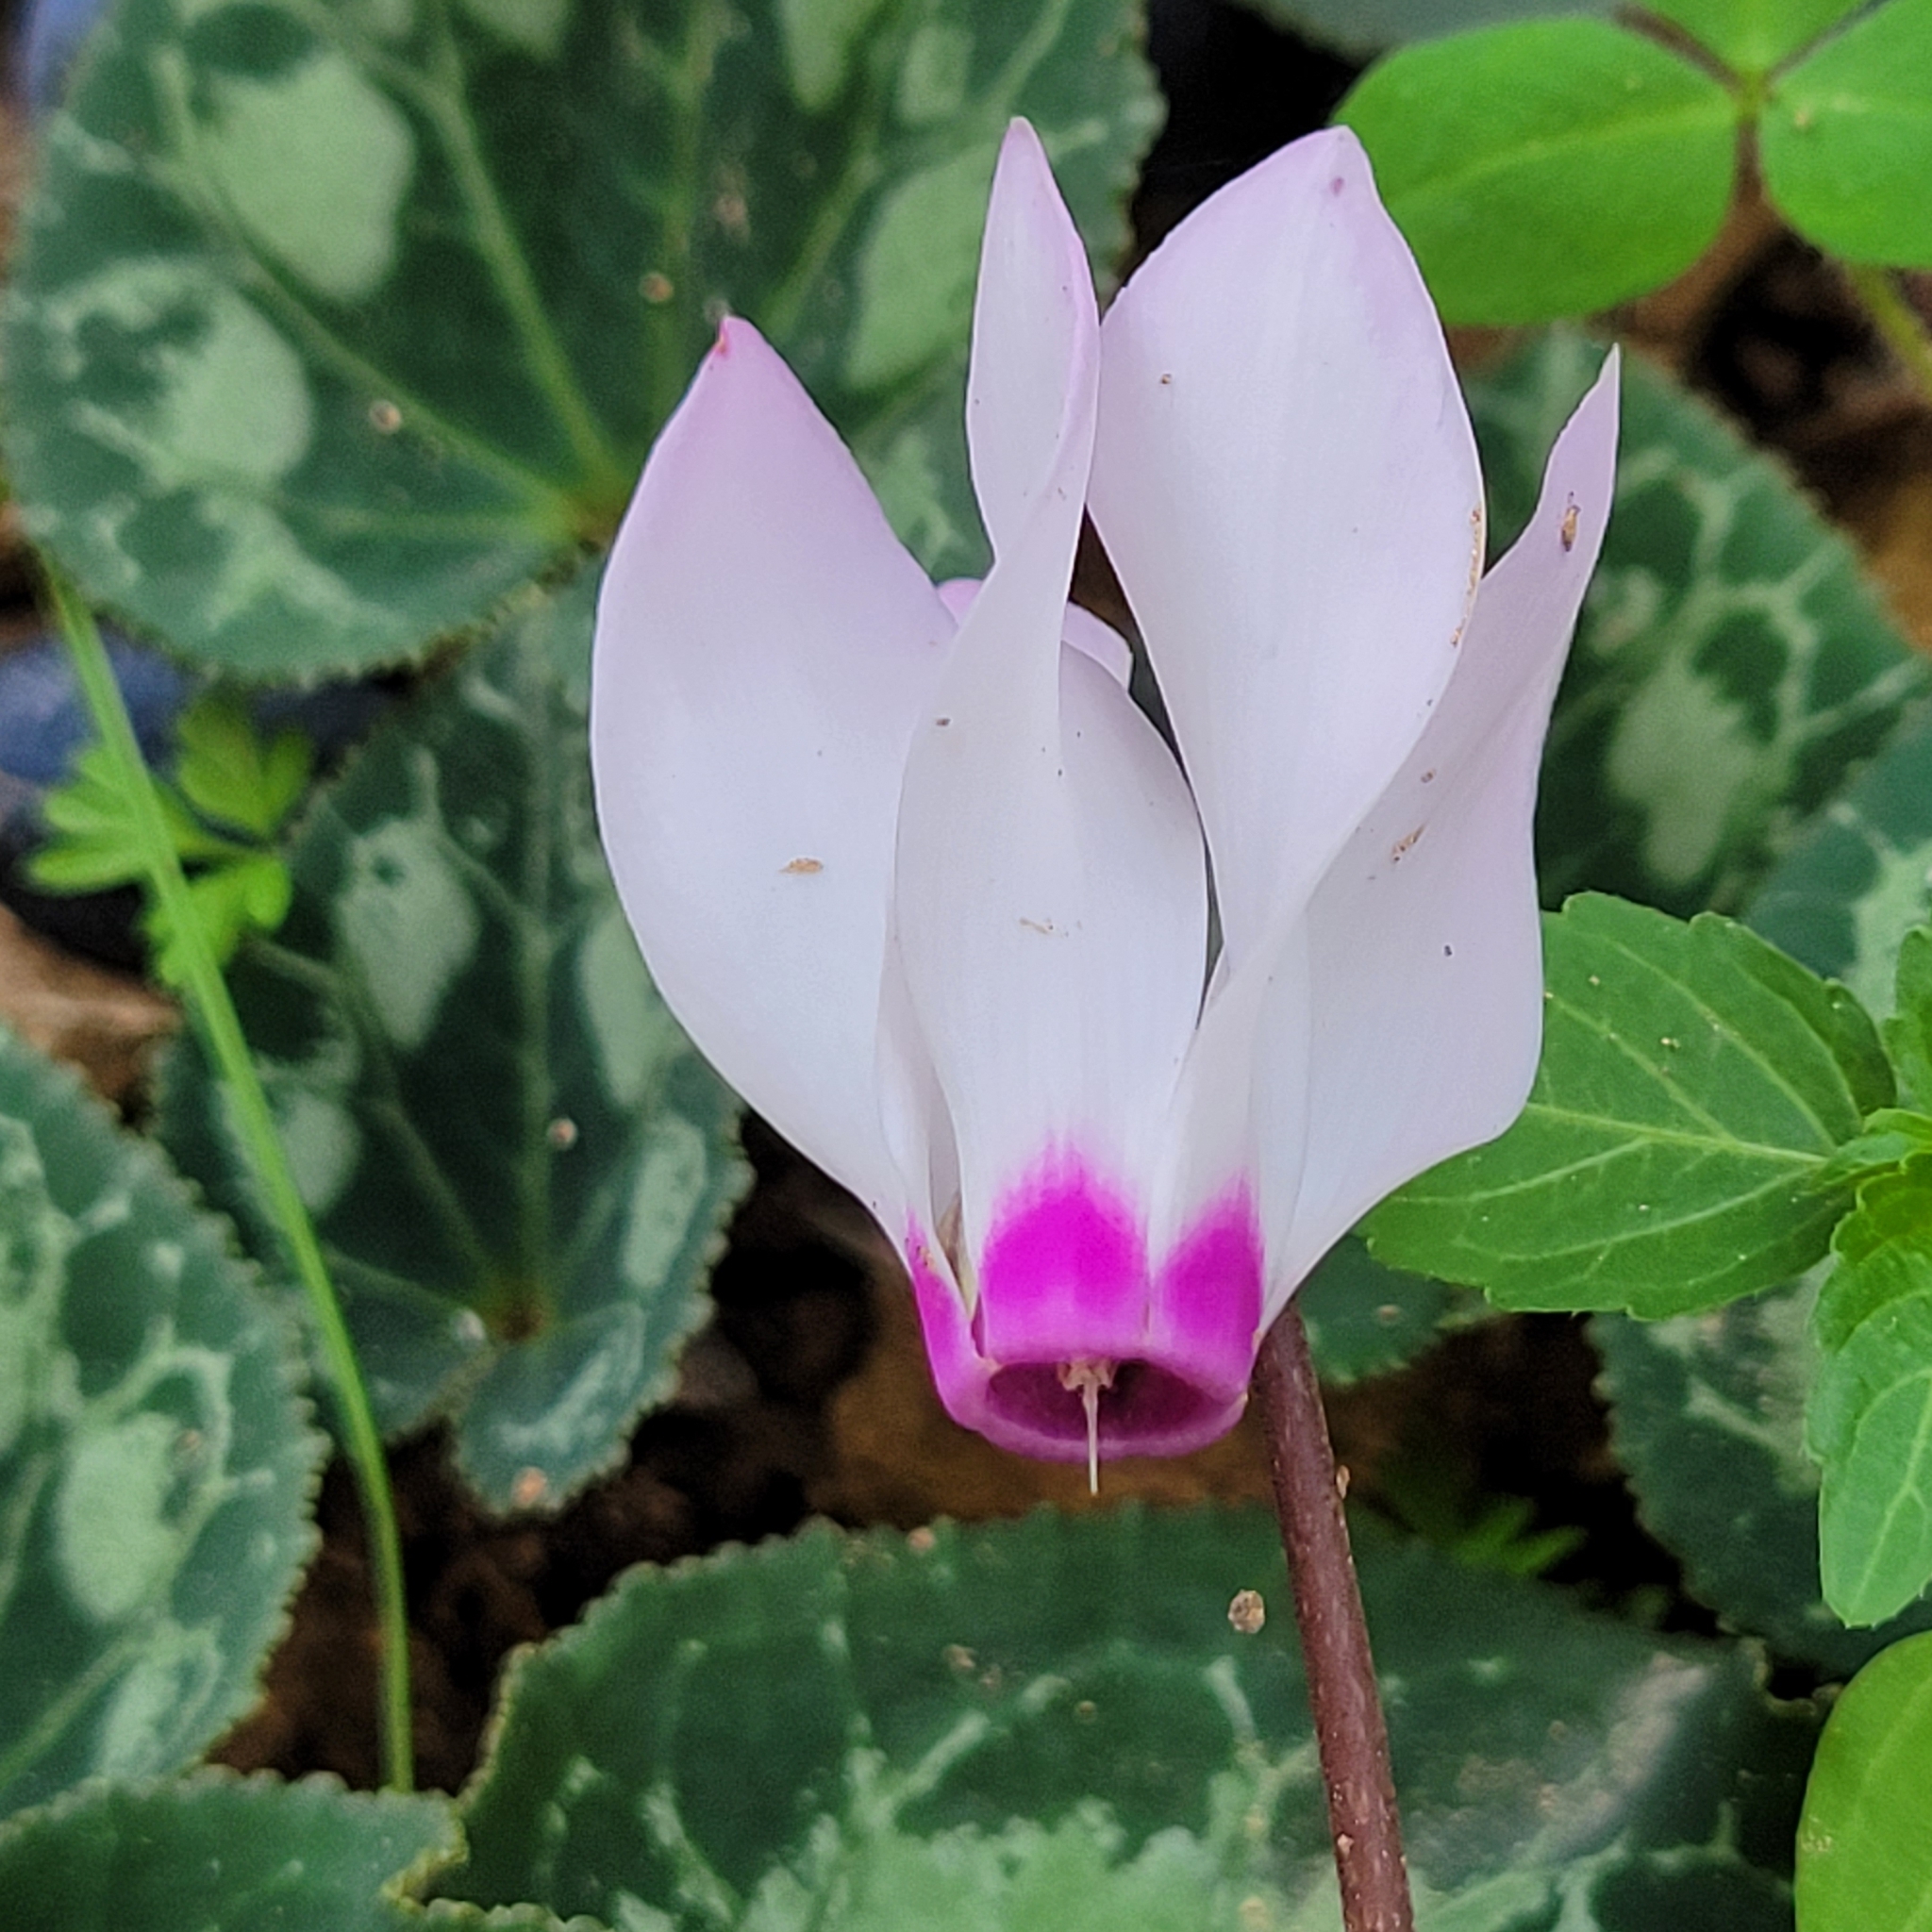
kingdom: Plantae
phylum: Tracheophyta
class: Magnoliopsida
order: Ericales
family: Primulaceae
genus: Cyclamen
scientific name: Cyclamen persicum
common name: Florist's cyclamen
